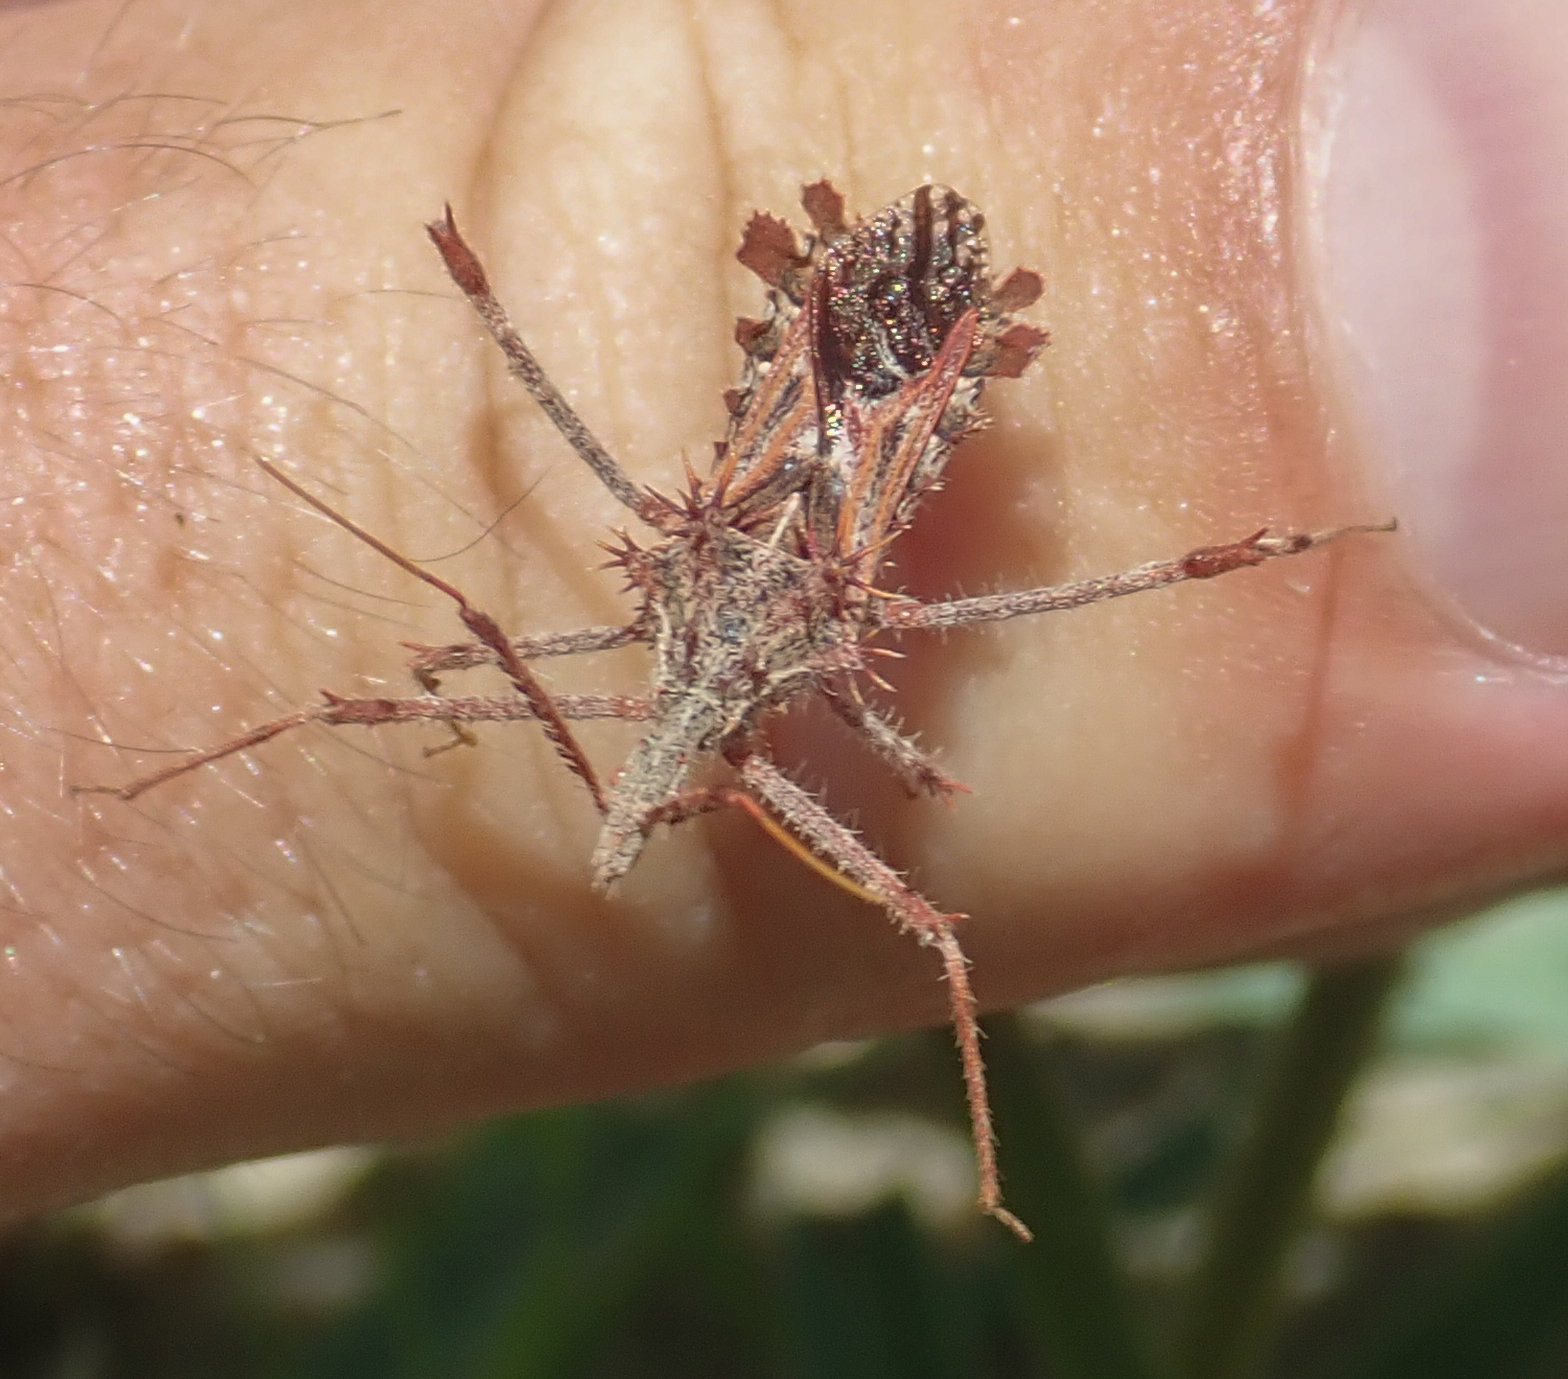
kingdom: Animalia
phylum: Arthropoda
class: Insecta
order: Hemiptera
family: Reduviidae
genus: Blapton
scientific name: Blapton ramentaceus
